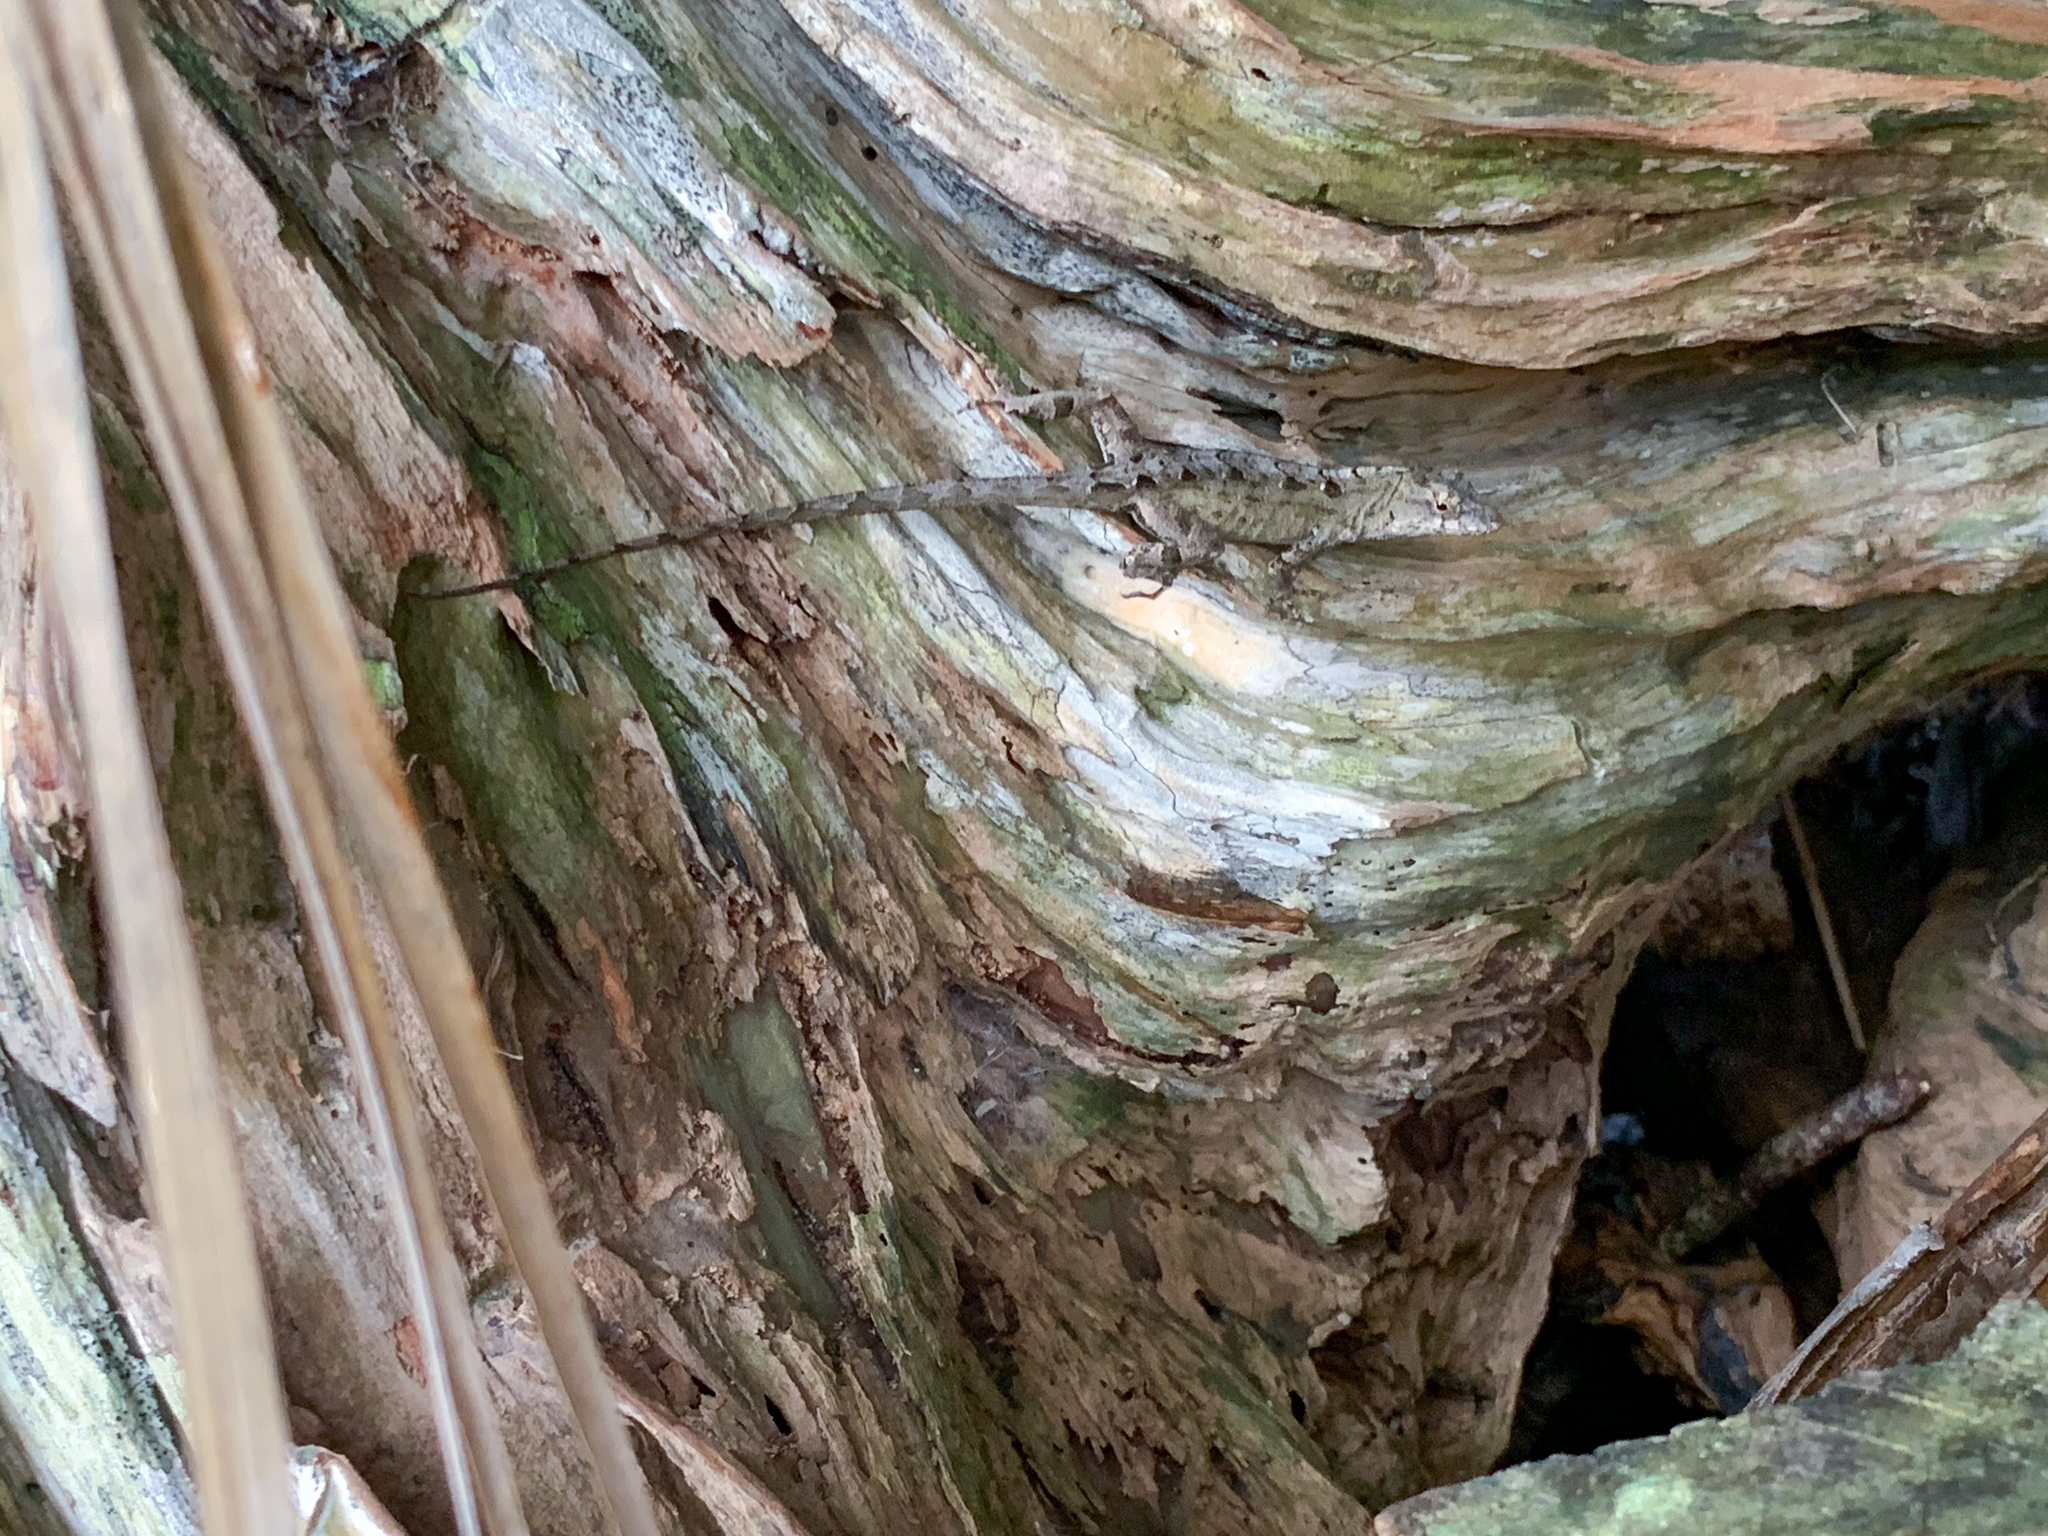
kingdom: Animalia
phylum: Chordata
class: Squamata
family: Dactyloidae
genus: Anolis
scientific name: Anolis sagrei
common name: Brown anole
